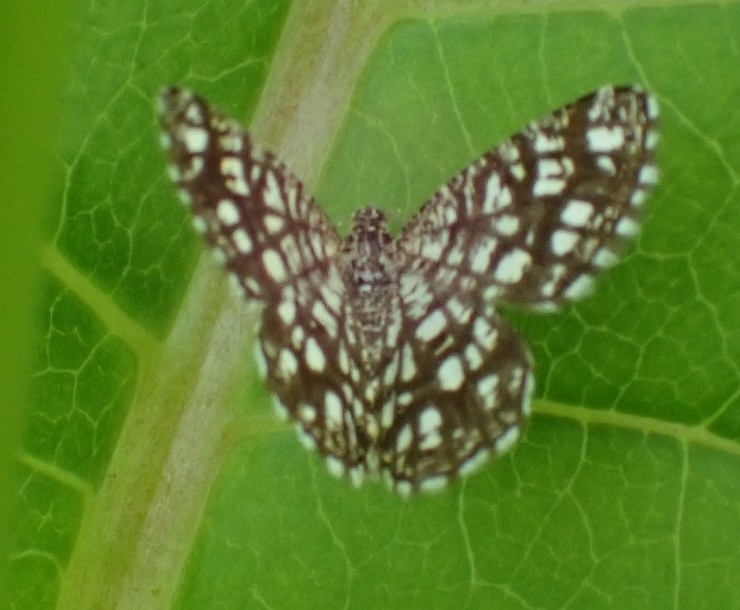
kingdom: Animalia
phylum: Arthropoda
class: Insecta
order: Lepidoptera
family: Geometridae
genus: Chiasmia
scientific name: Chiasmia clathrata
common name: Latticed heath
